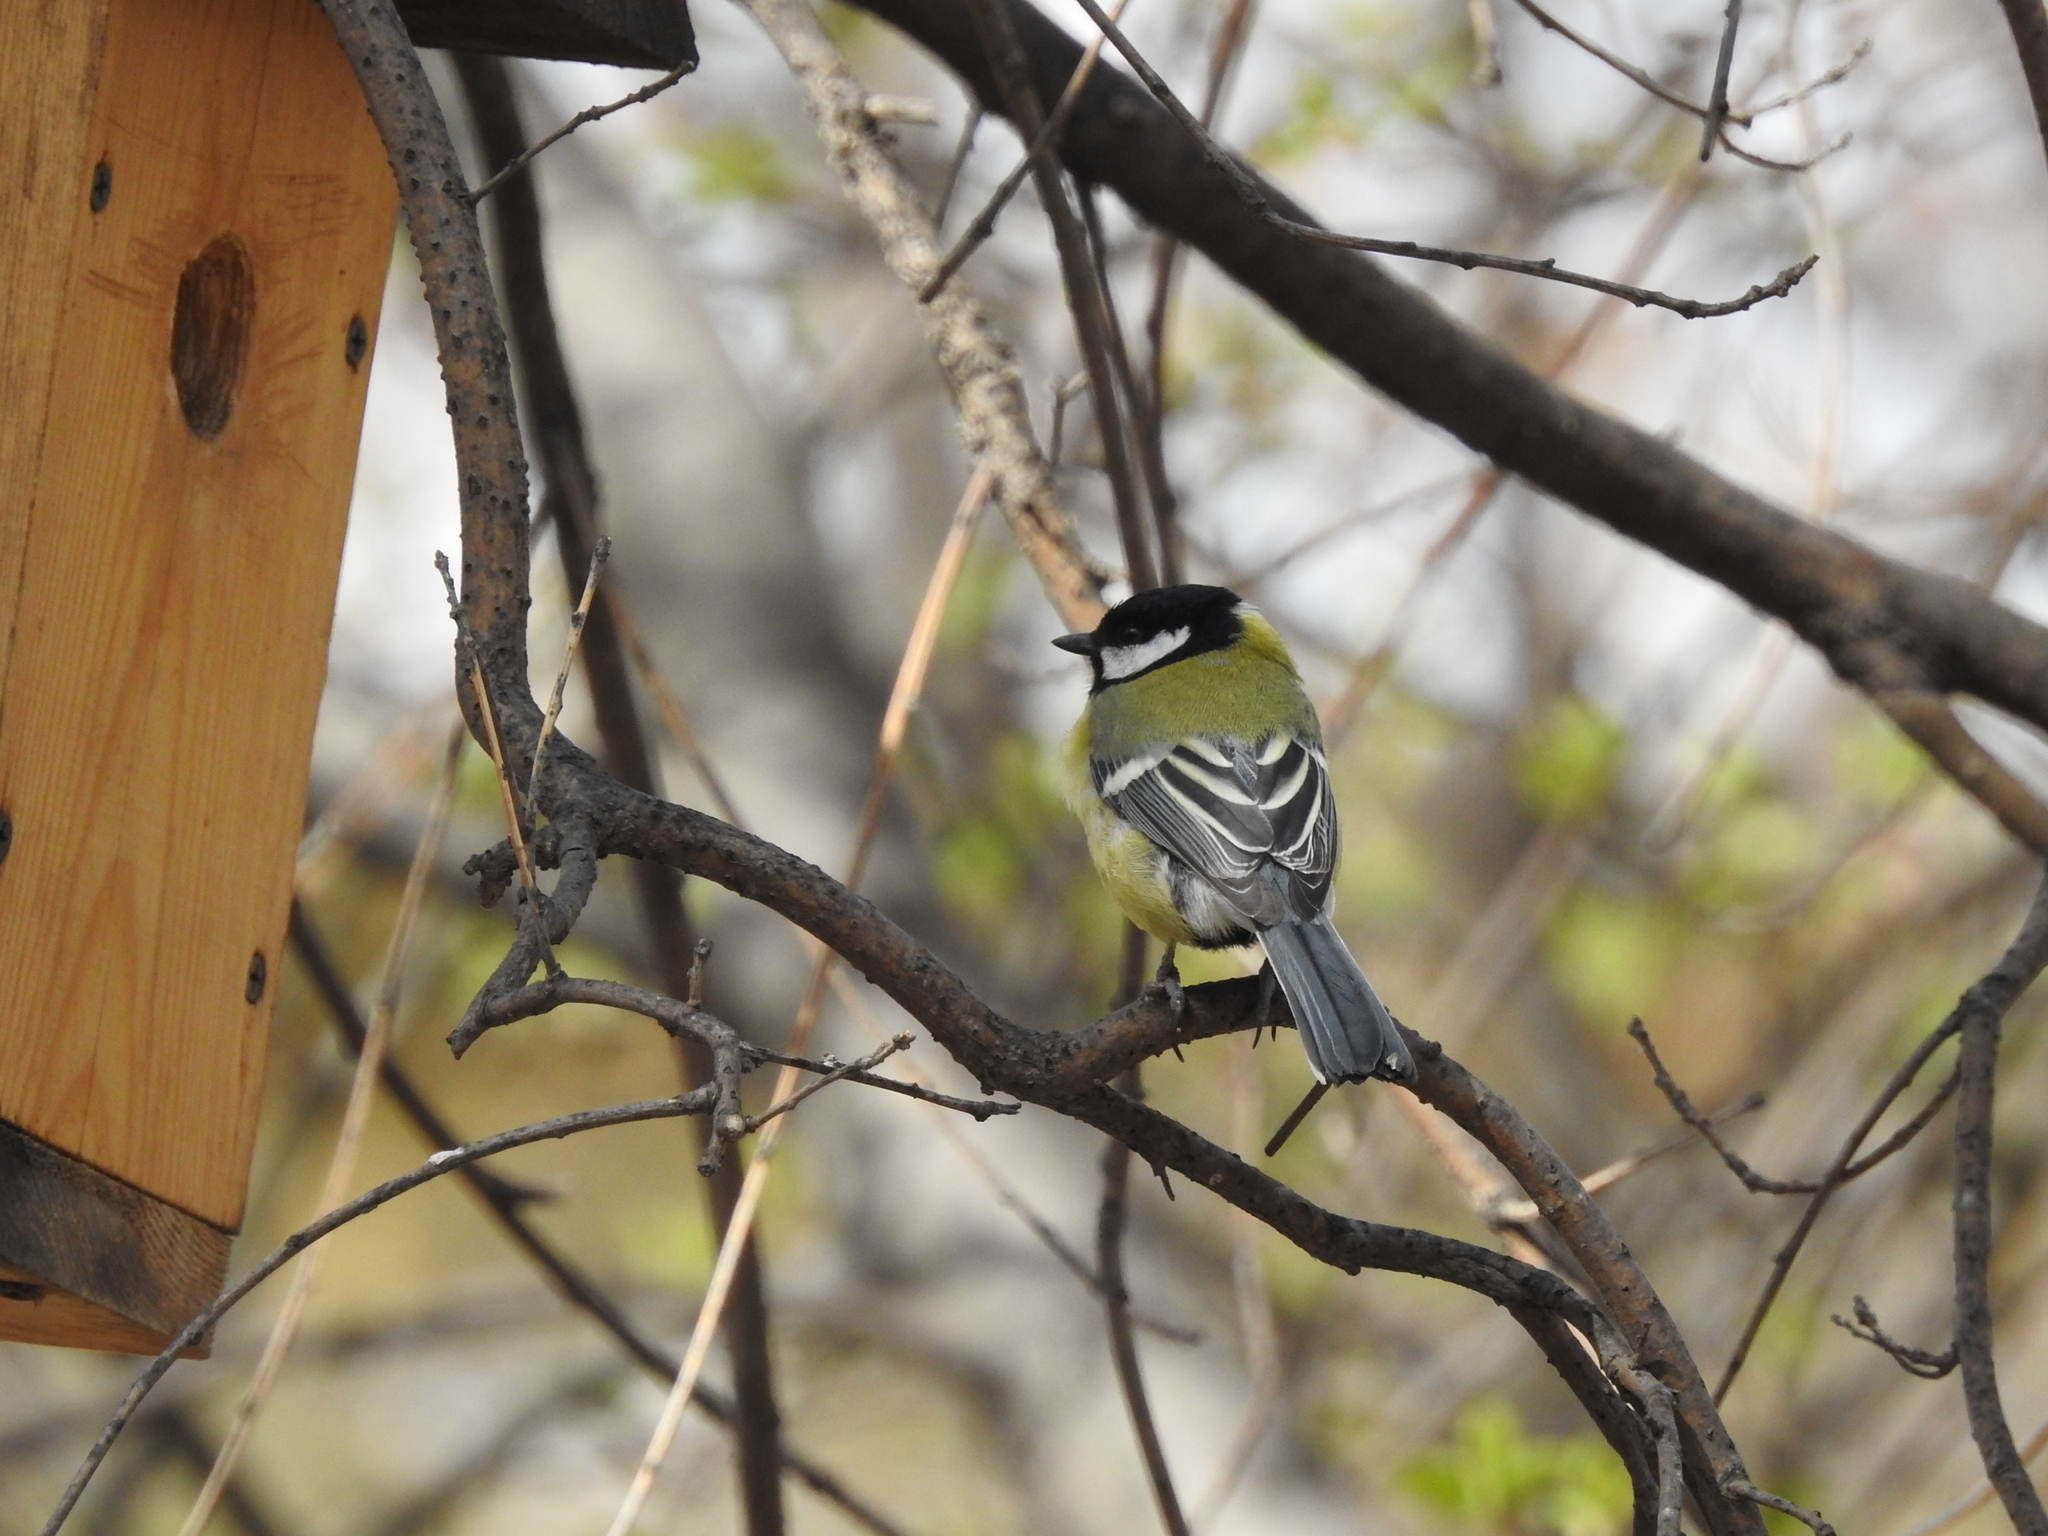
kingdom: Animalia
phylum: Chordata
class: Aves
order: Passeriformes
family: Paridae
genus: Parus
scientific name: Parus major
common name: Great tit
